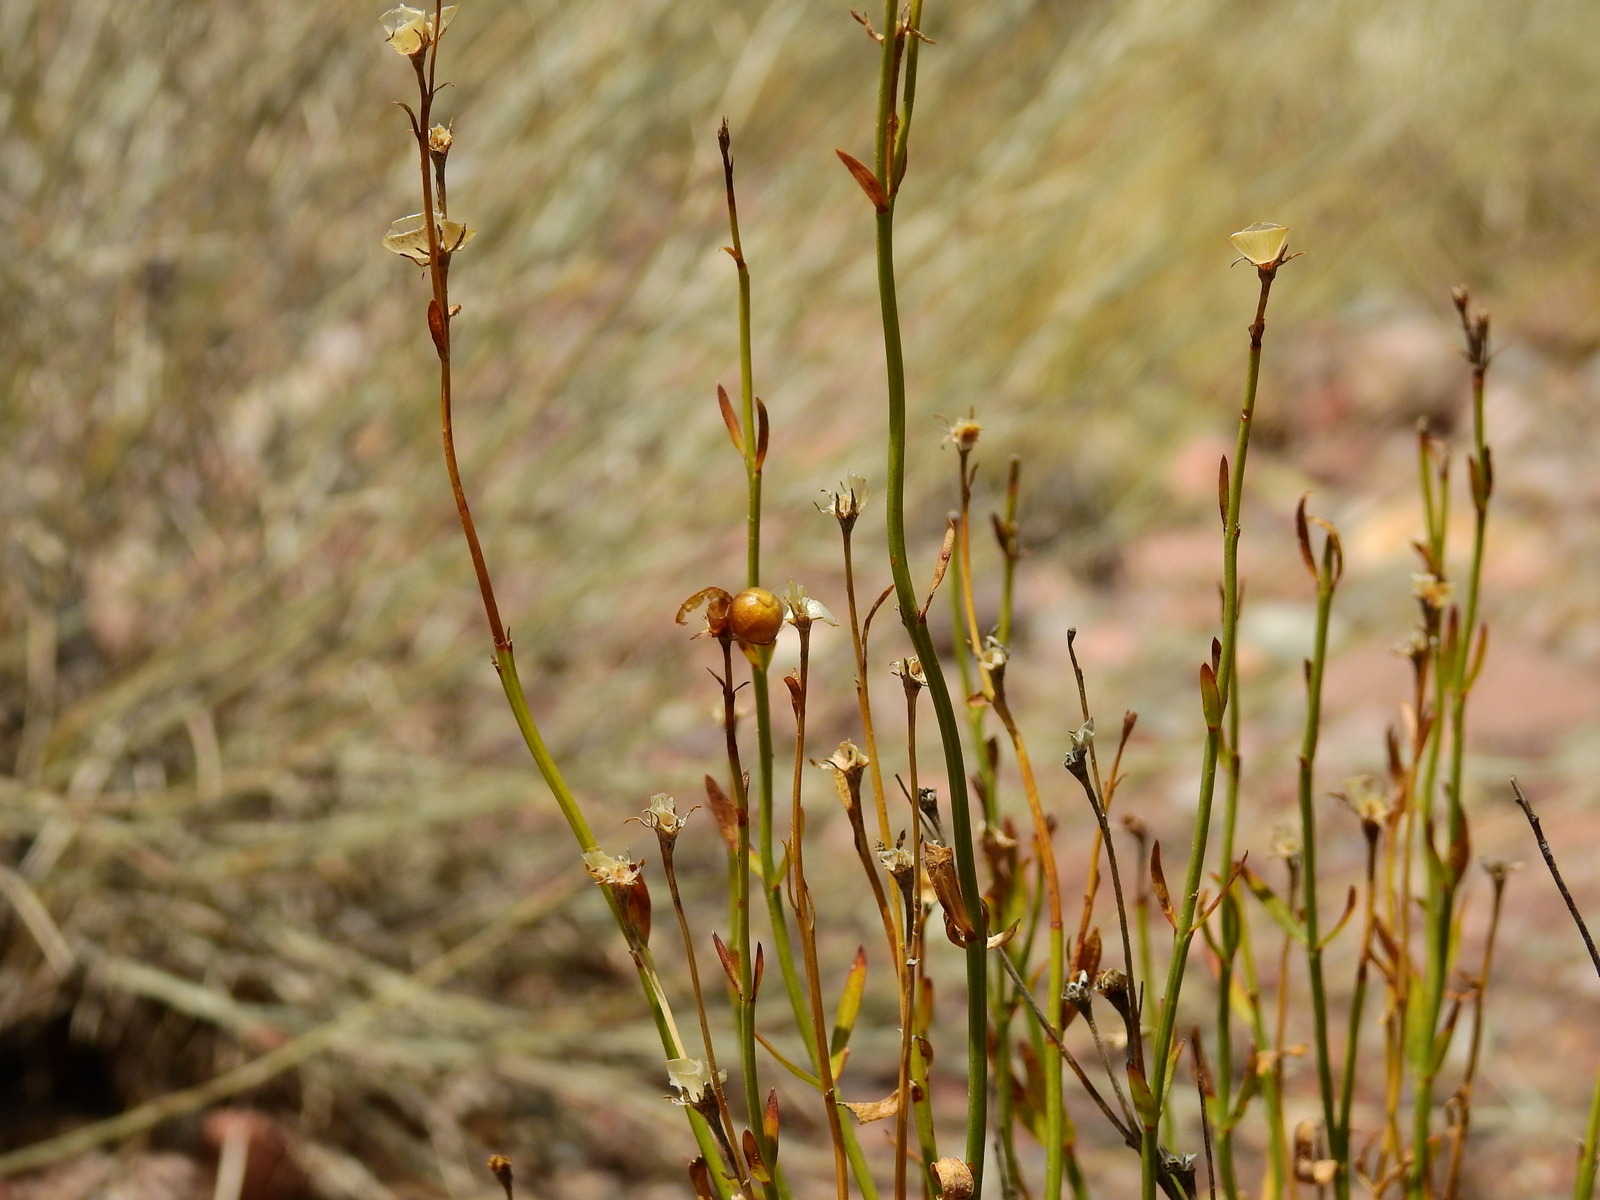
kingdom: Plantae
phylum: Tracheophyta
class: Magnoliopsida
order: Lamiales
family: Oleaceae
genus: Menodora
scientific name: Menodora decemfida
